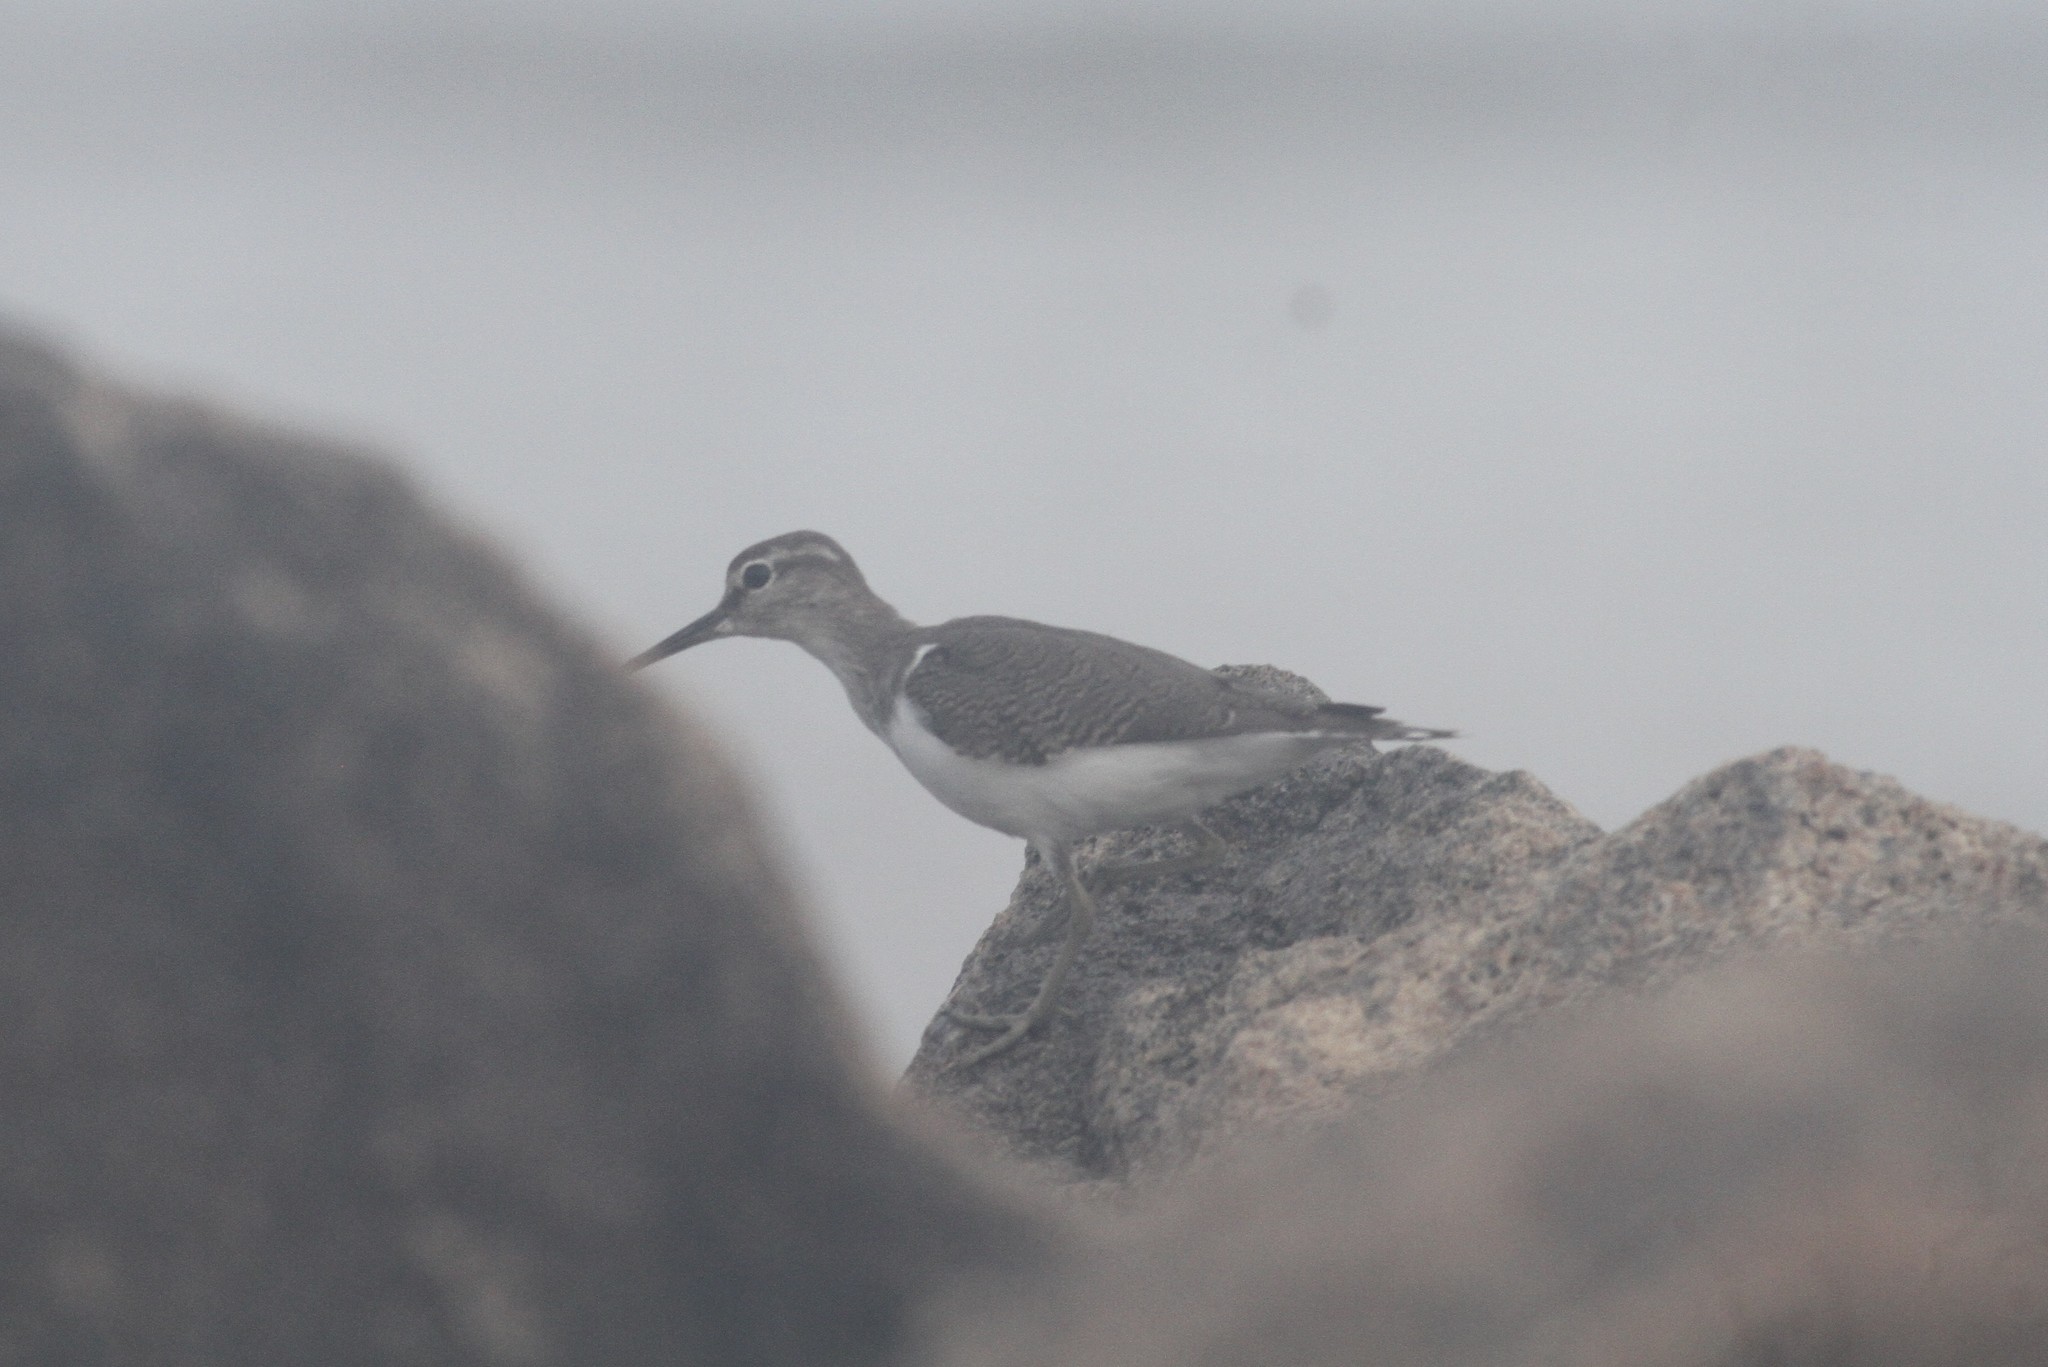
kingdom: Animalia
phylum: Chordata
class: Aves
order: Charadriiformes
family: Scolopacidae
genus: Actitis
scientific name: Actitis hypoleucos
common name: Common sandpiper
